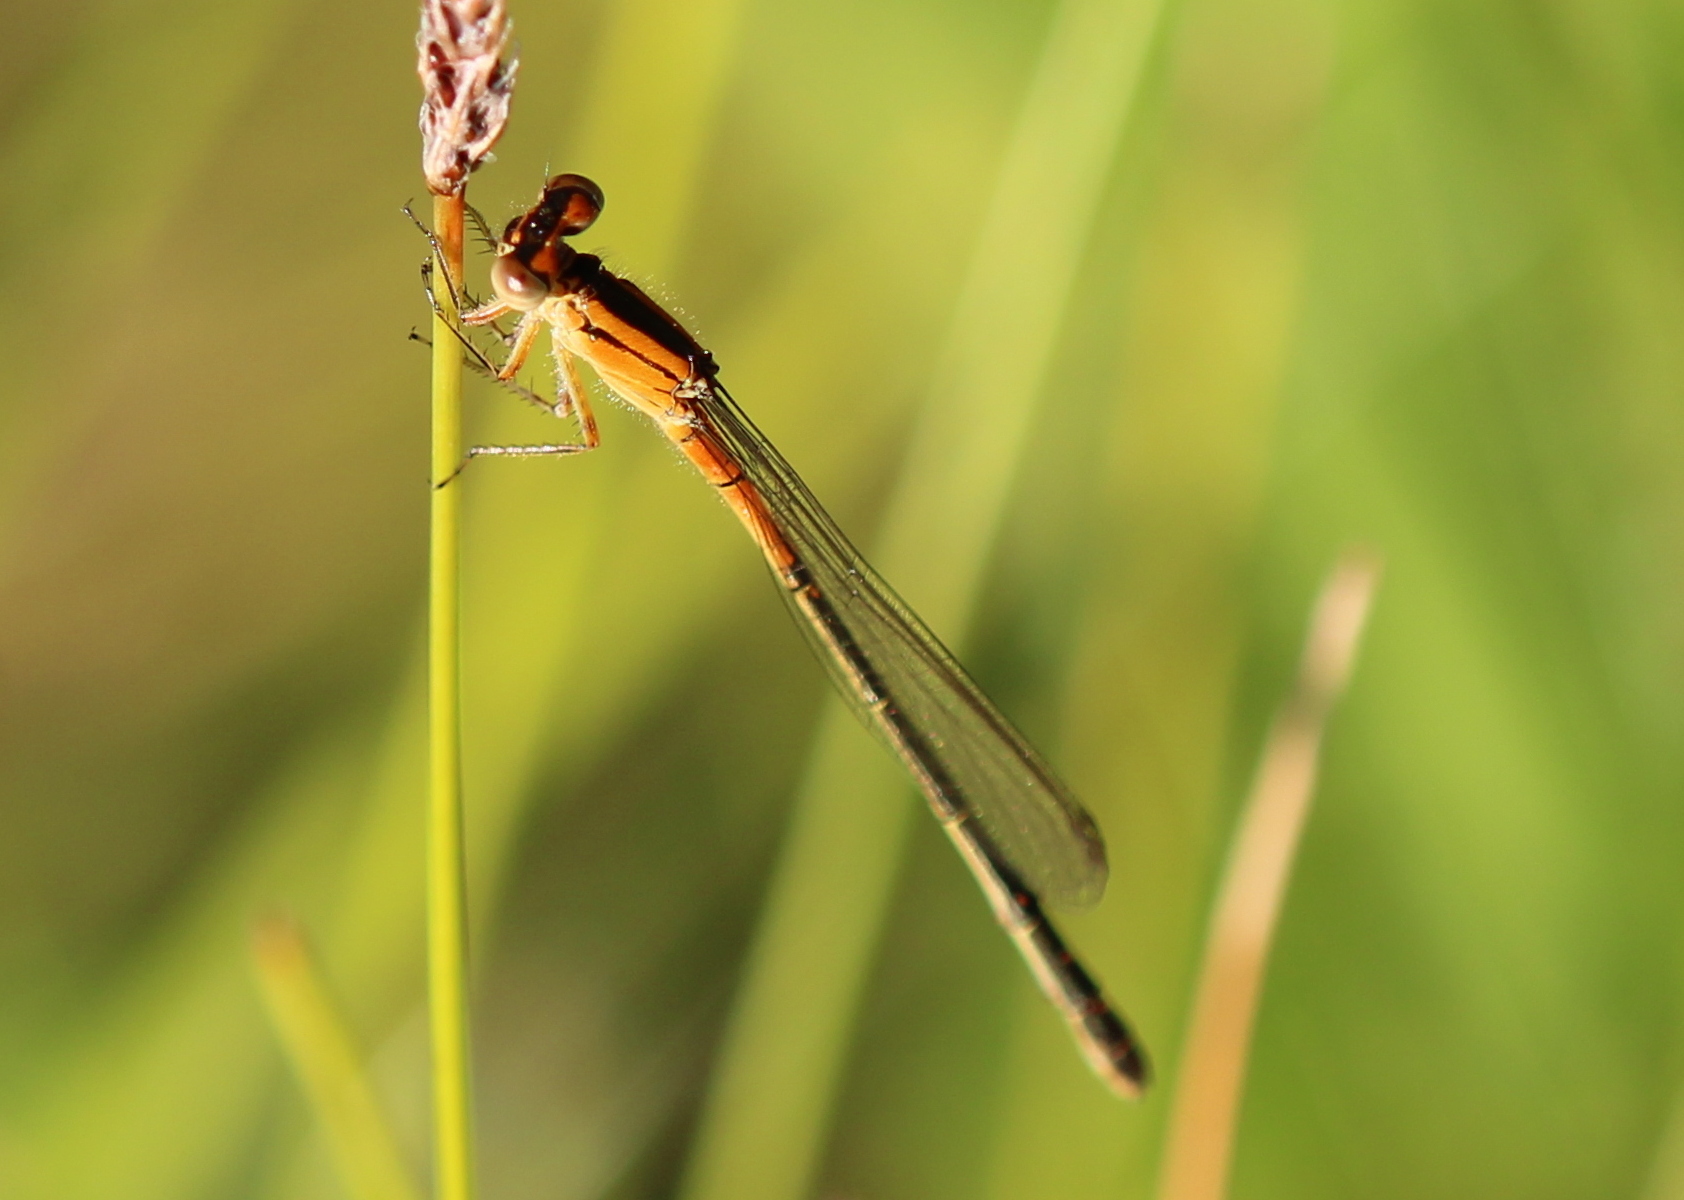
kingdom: Animalia
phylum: Arthropoda
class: Insecta
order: Odonata
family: Coenagrionidae
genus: Ischnura
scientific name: Ischnura verticalis
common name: Eastern forktail
